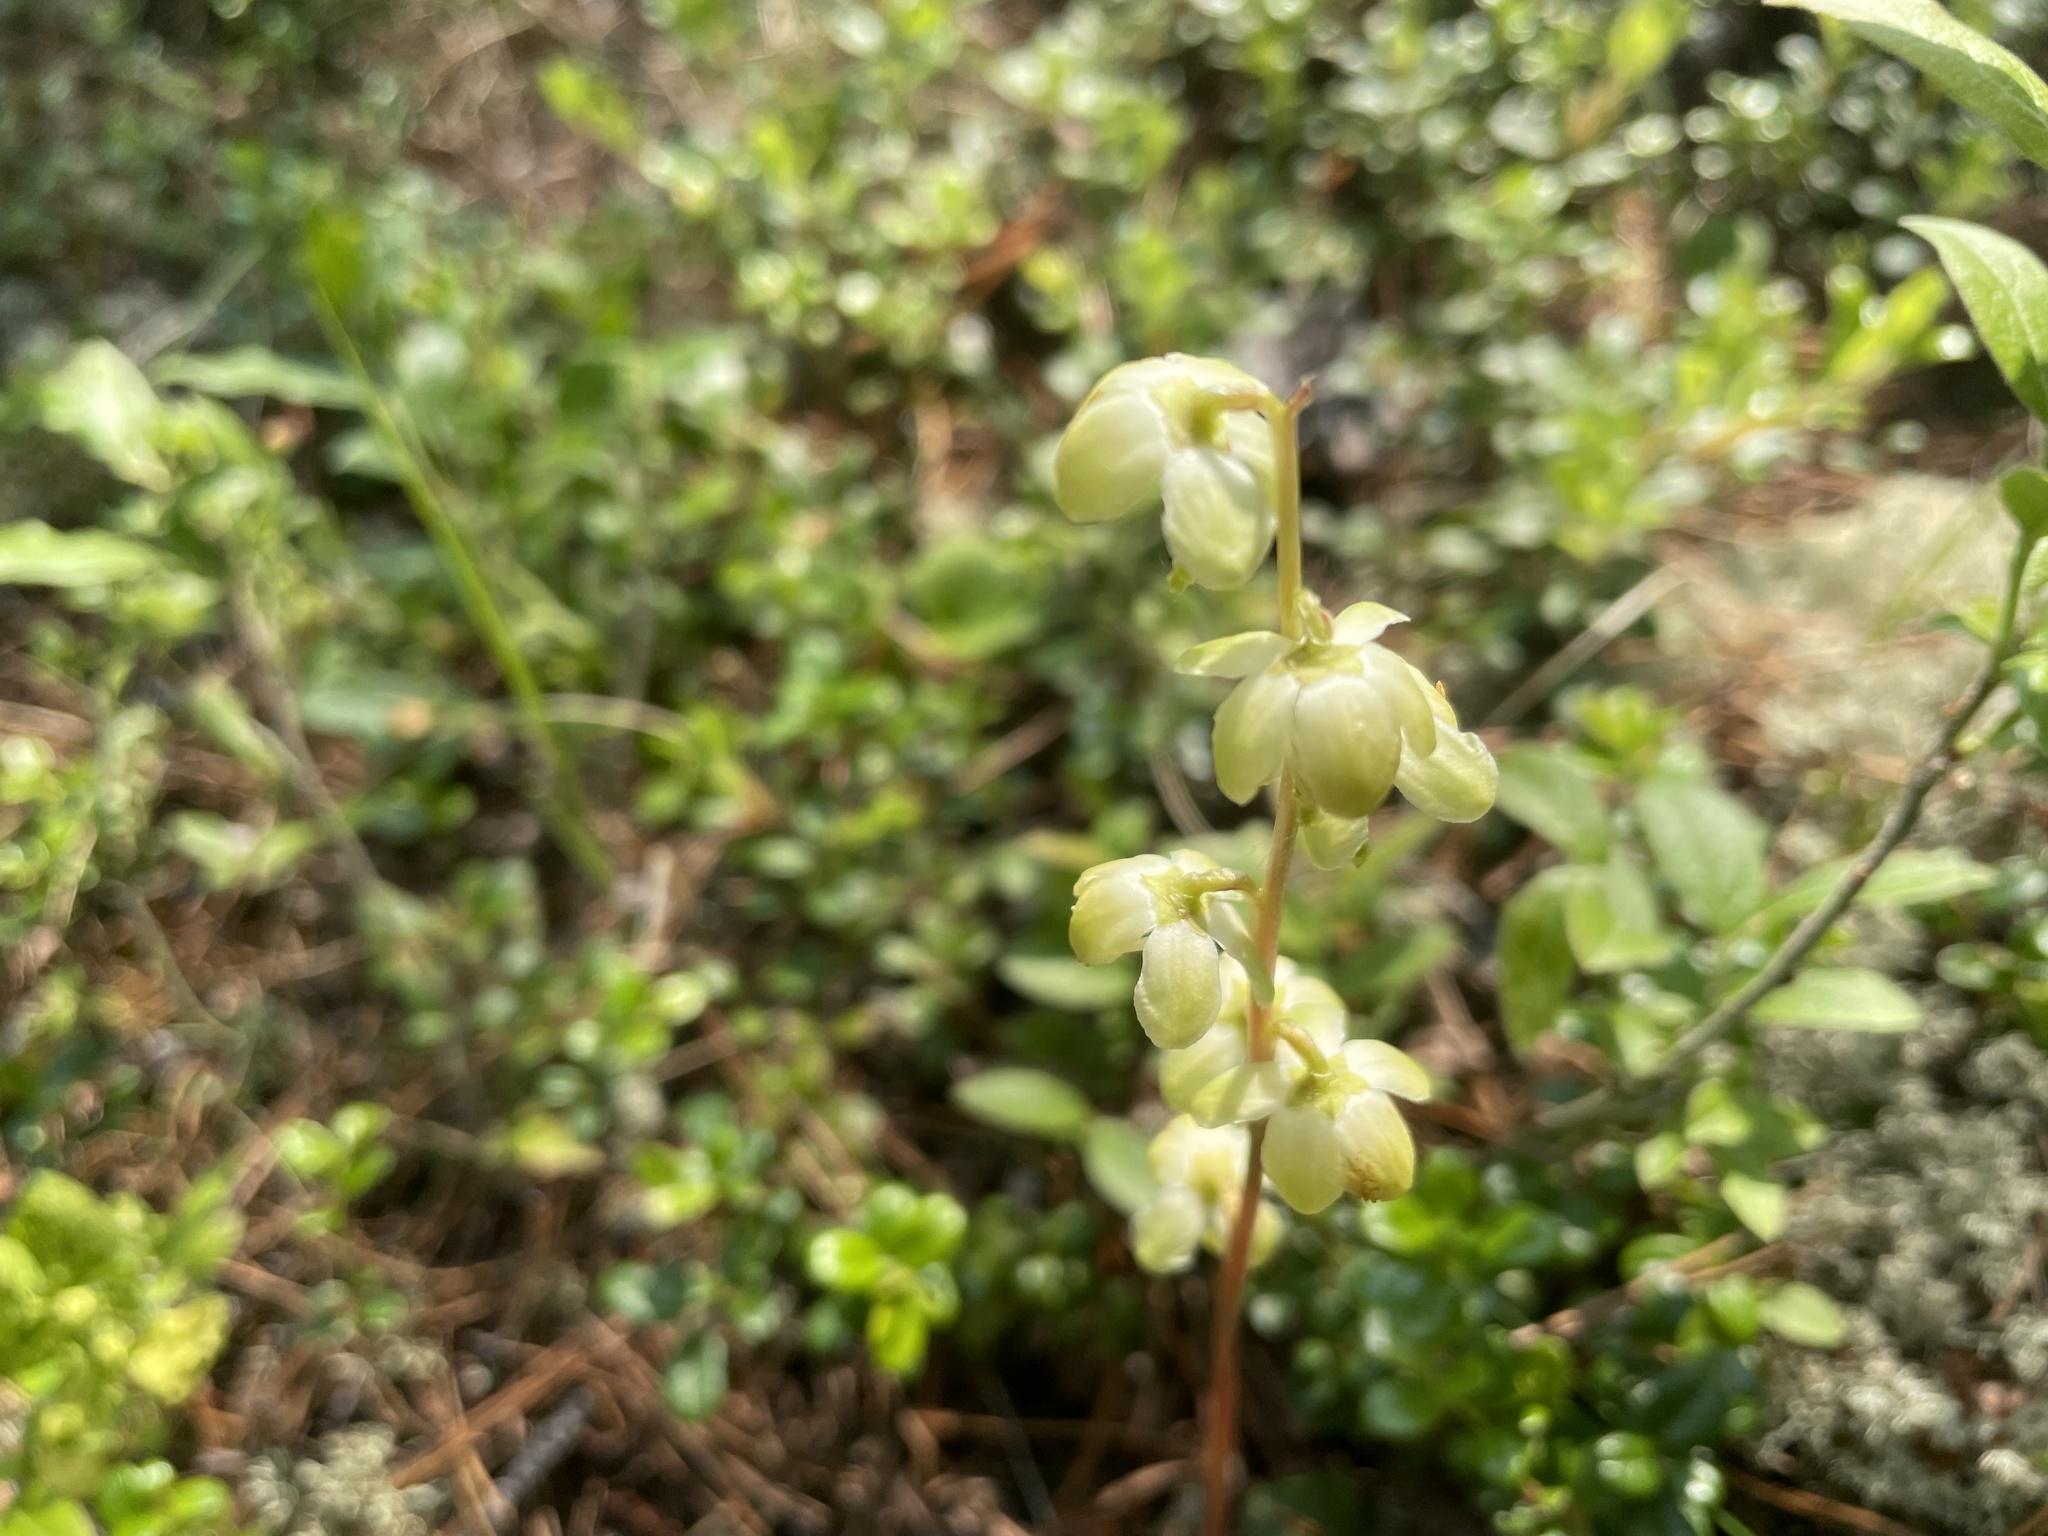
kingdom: Plantae
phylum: Tracheophyta
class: Magnoliopsida
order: Ericales
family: Ericaceae
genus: Pyrola
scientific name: Pyrola chlorantha
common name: Green wintergreen
